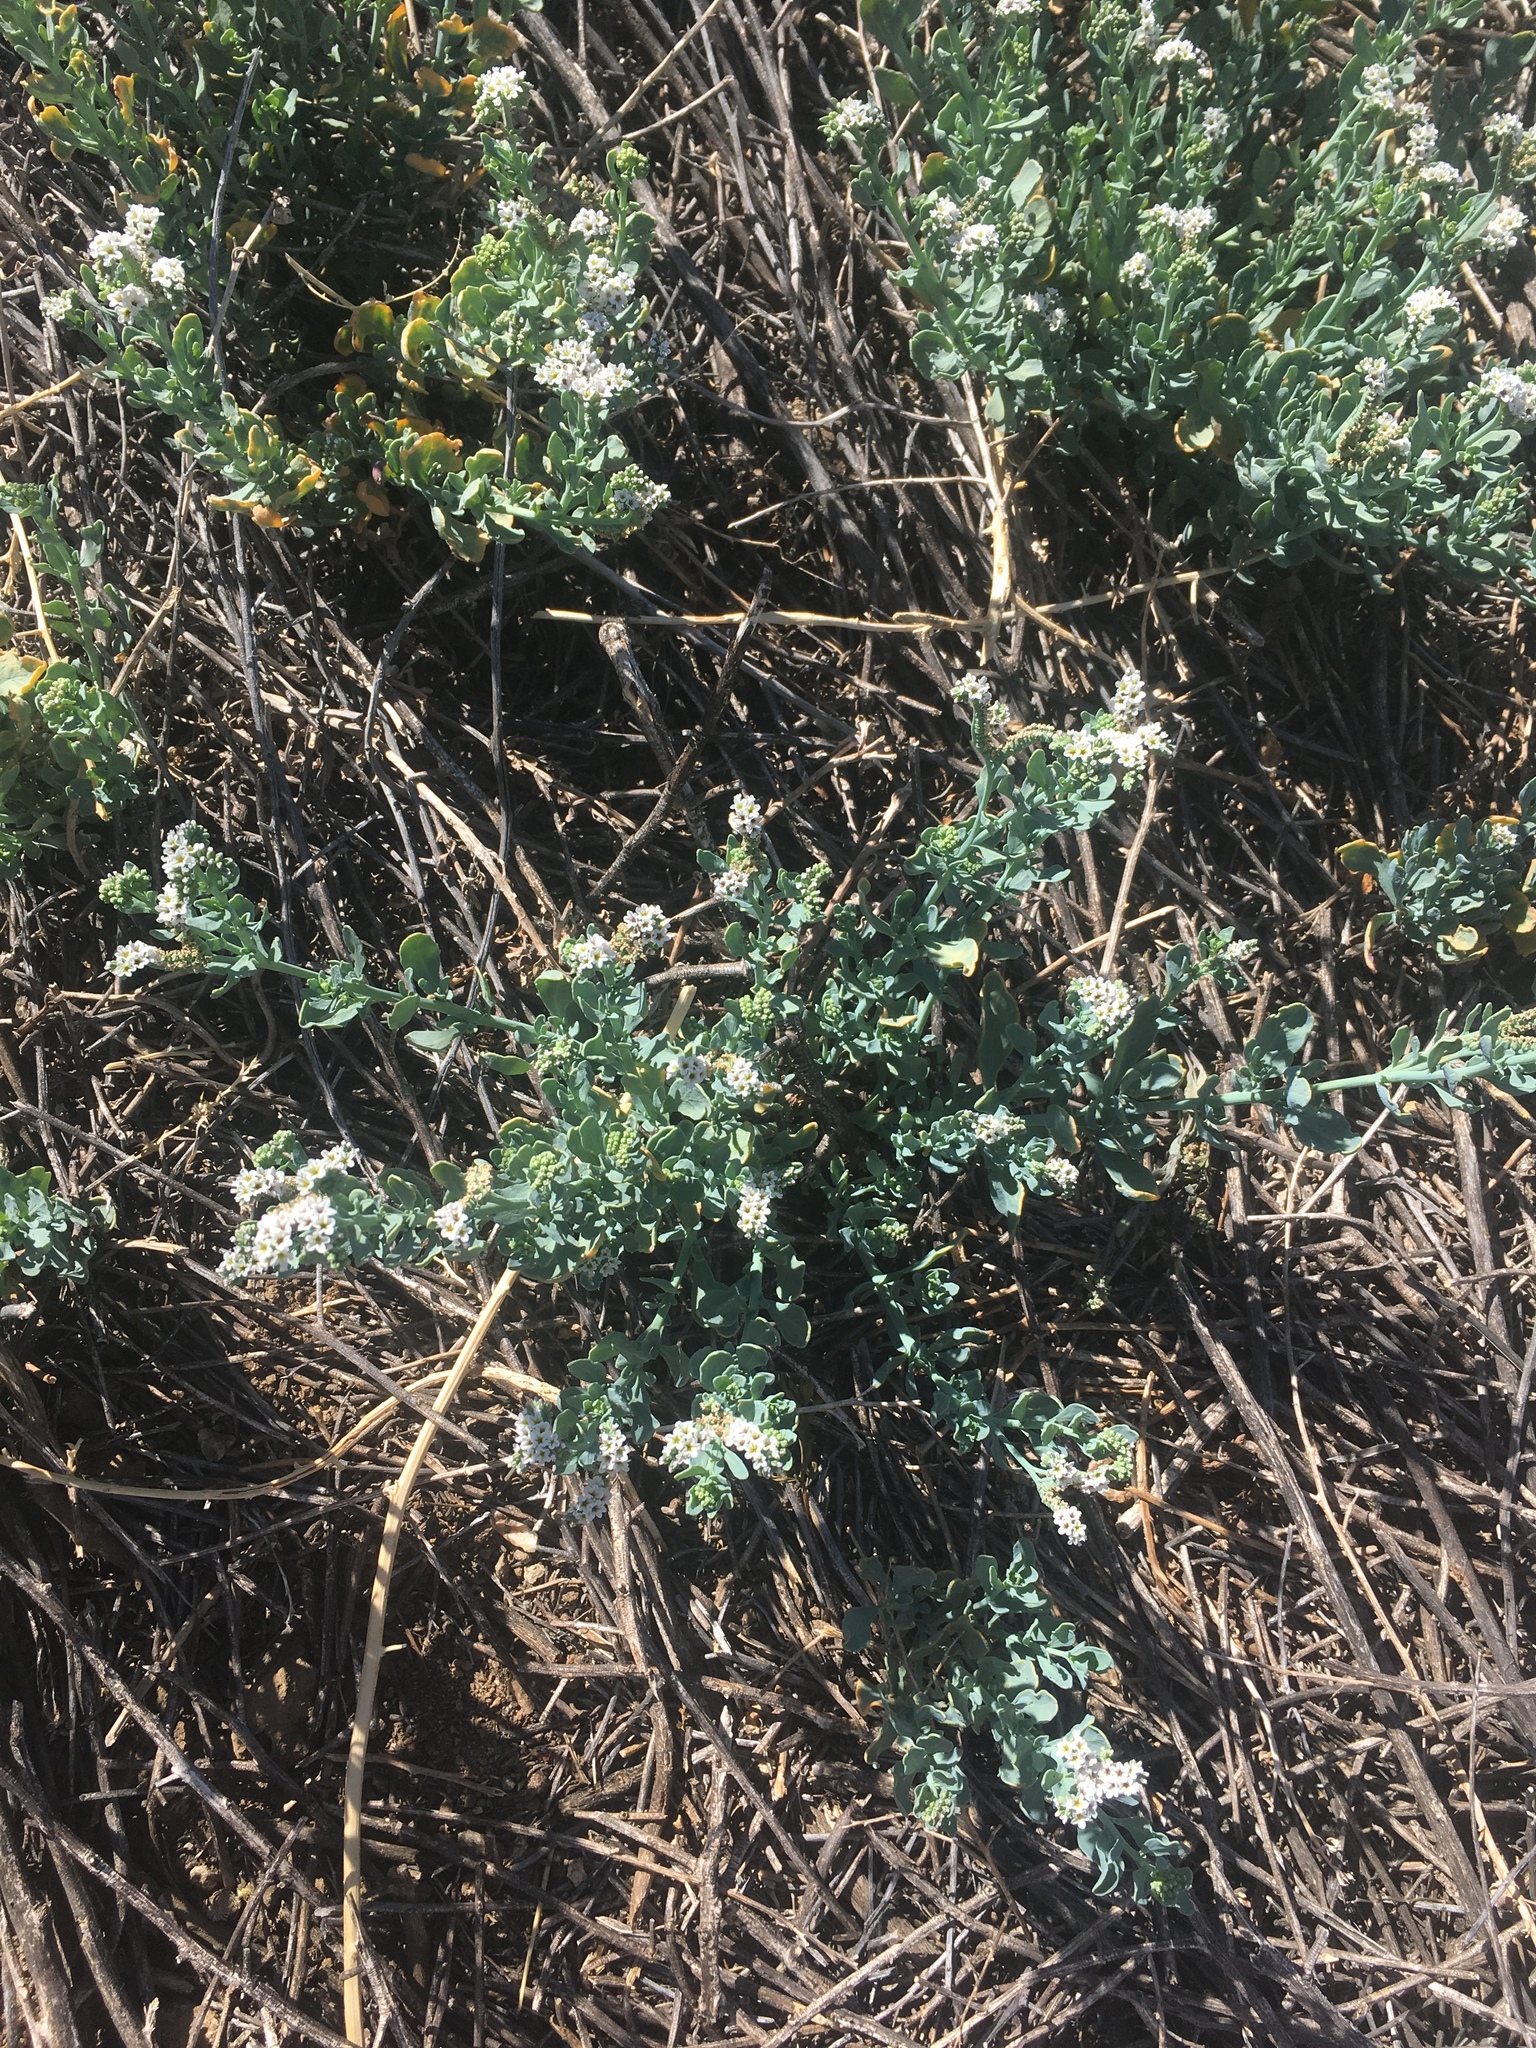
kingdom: Plantae
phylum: Tracheophyta
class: Magnoliopsida
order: Boraginales
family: Heliotropiaceae
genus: Heliotropium
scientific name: Heliotropium curassavicum
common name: Seaside heliotrope
